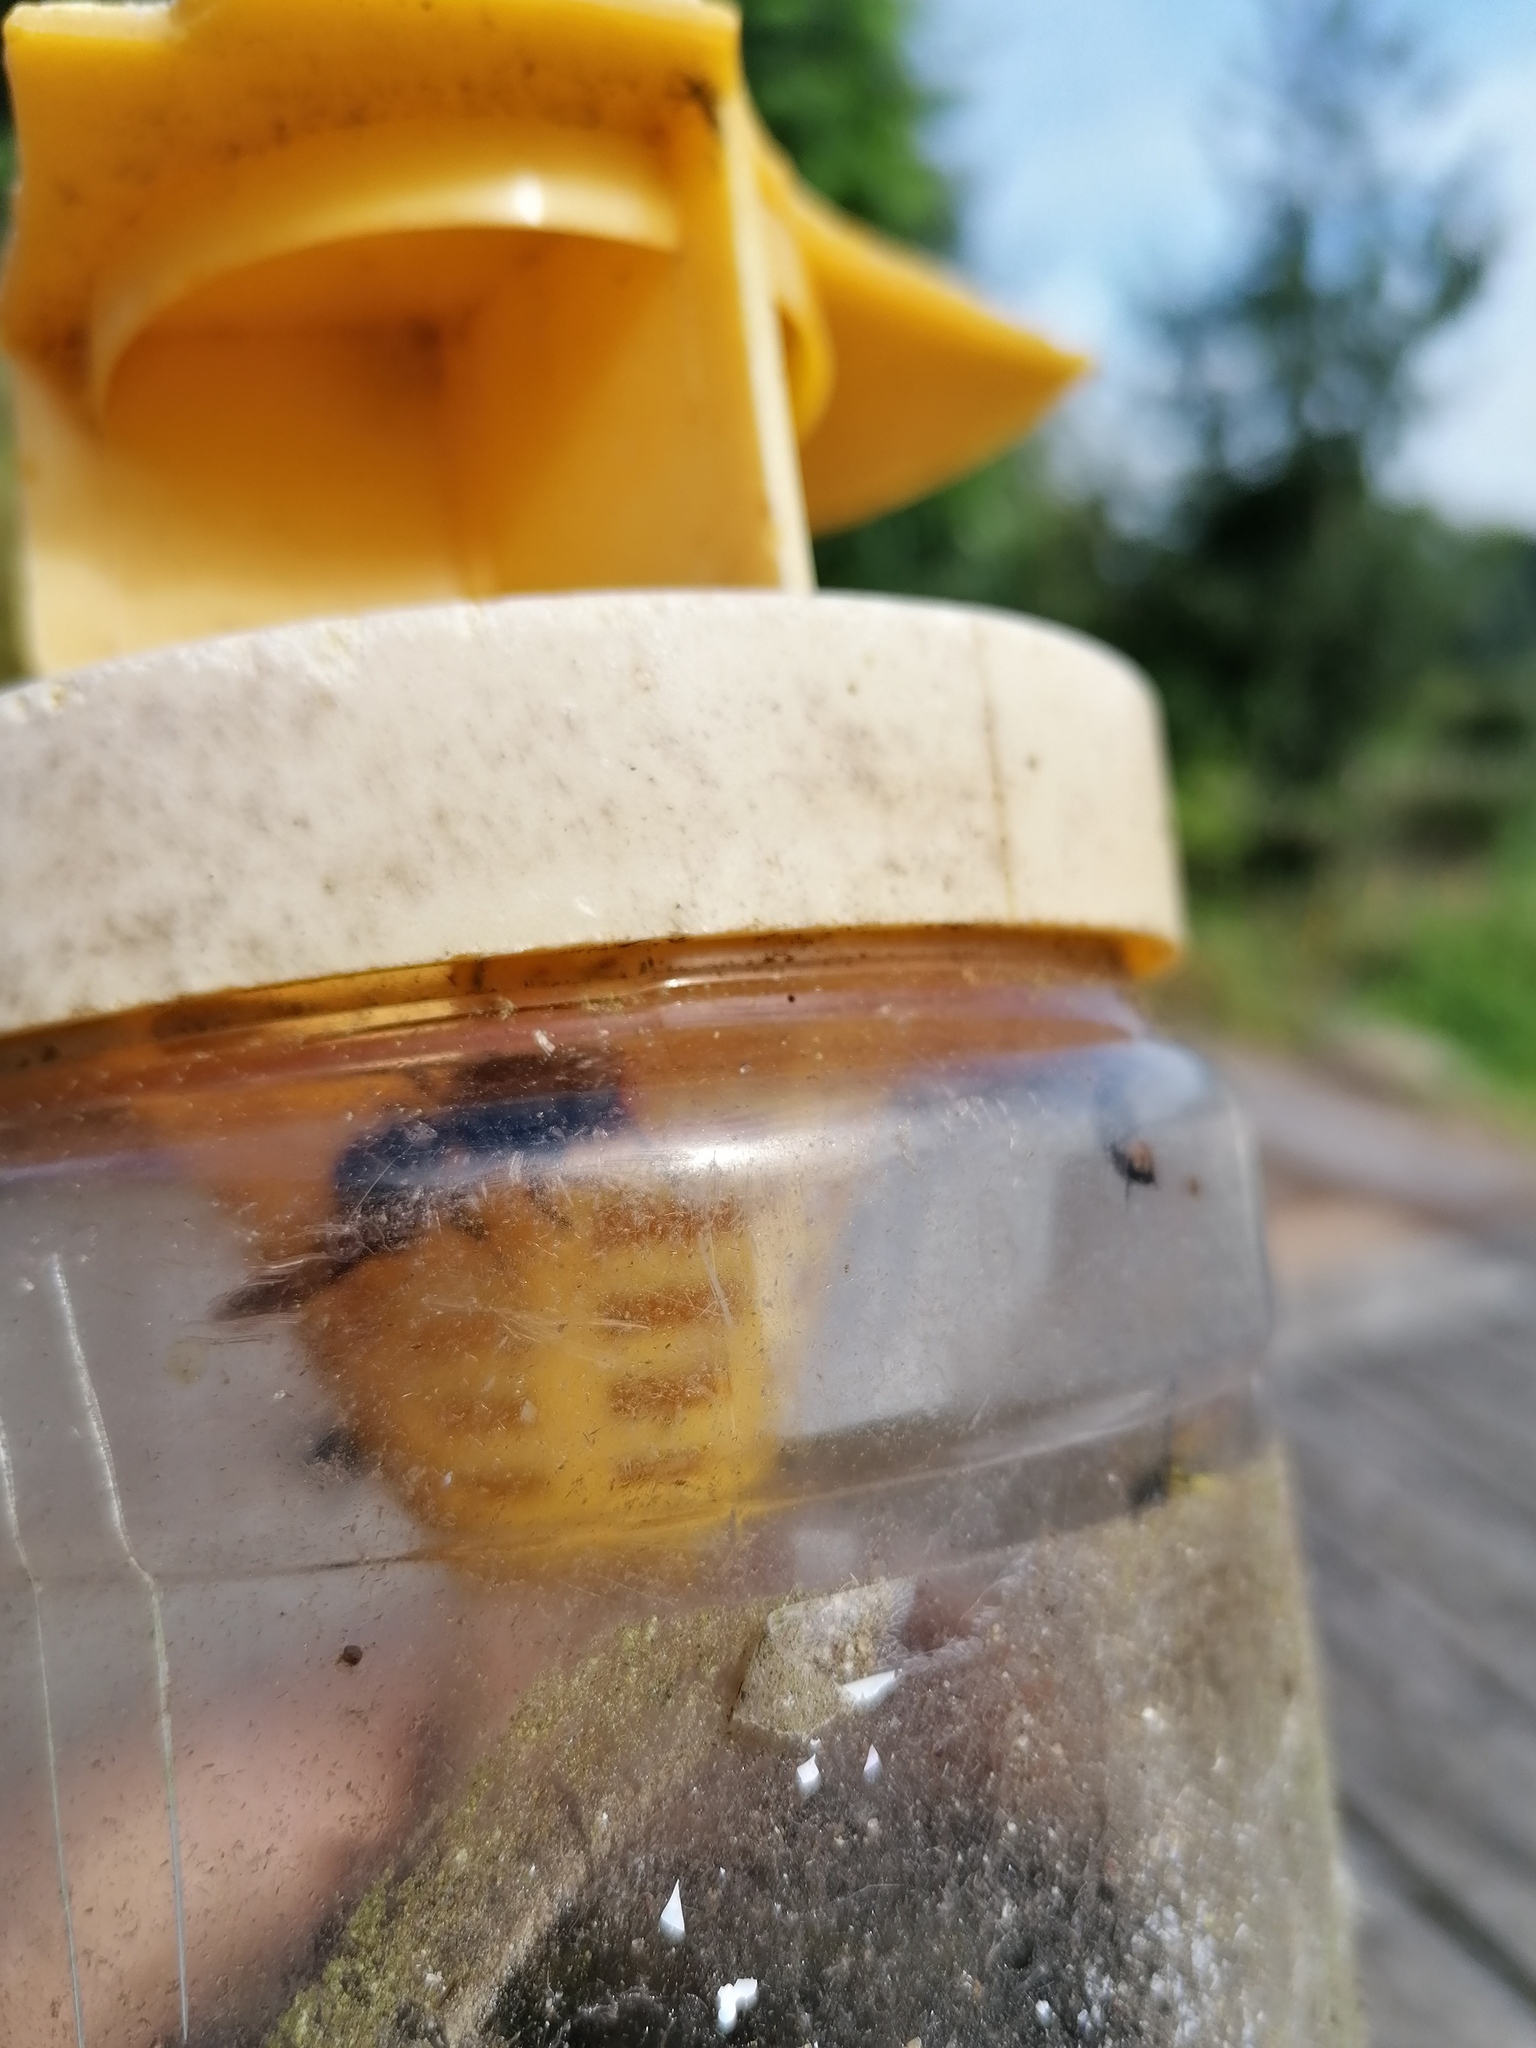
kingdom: Animalia
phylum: Arthropoda
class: Insecta
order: Hymenoptera
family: Vespidae
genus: Vespa
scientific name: Vespa velutina
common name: Asian hornet
